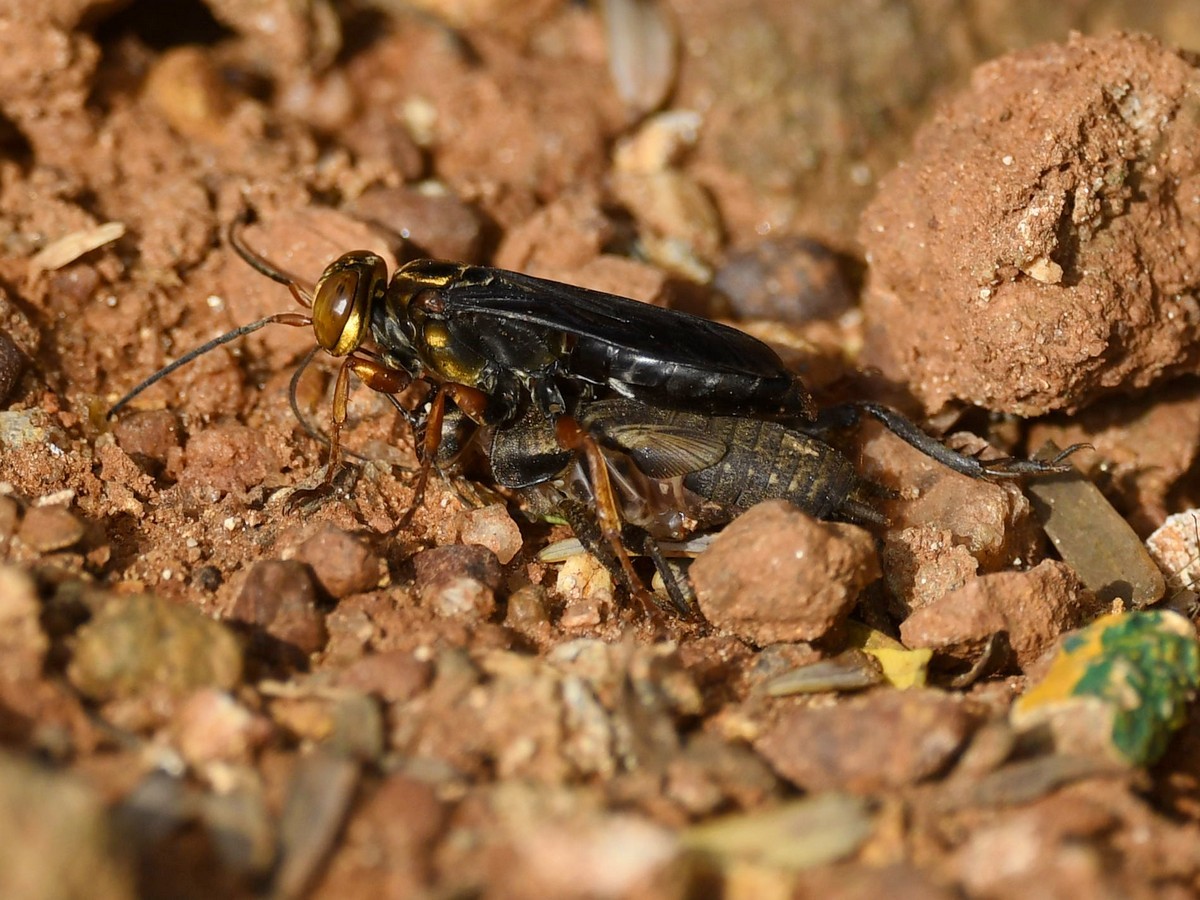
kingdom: Animalia
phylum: Arthropoda
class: Insecta
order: Hymenoptera
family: Crabronidae
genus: Liris
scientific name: Liris aurulentus
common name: Golden cricket wasp
